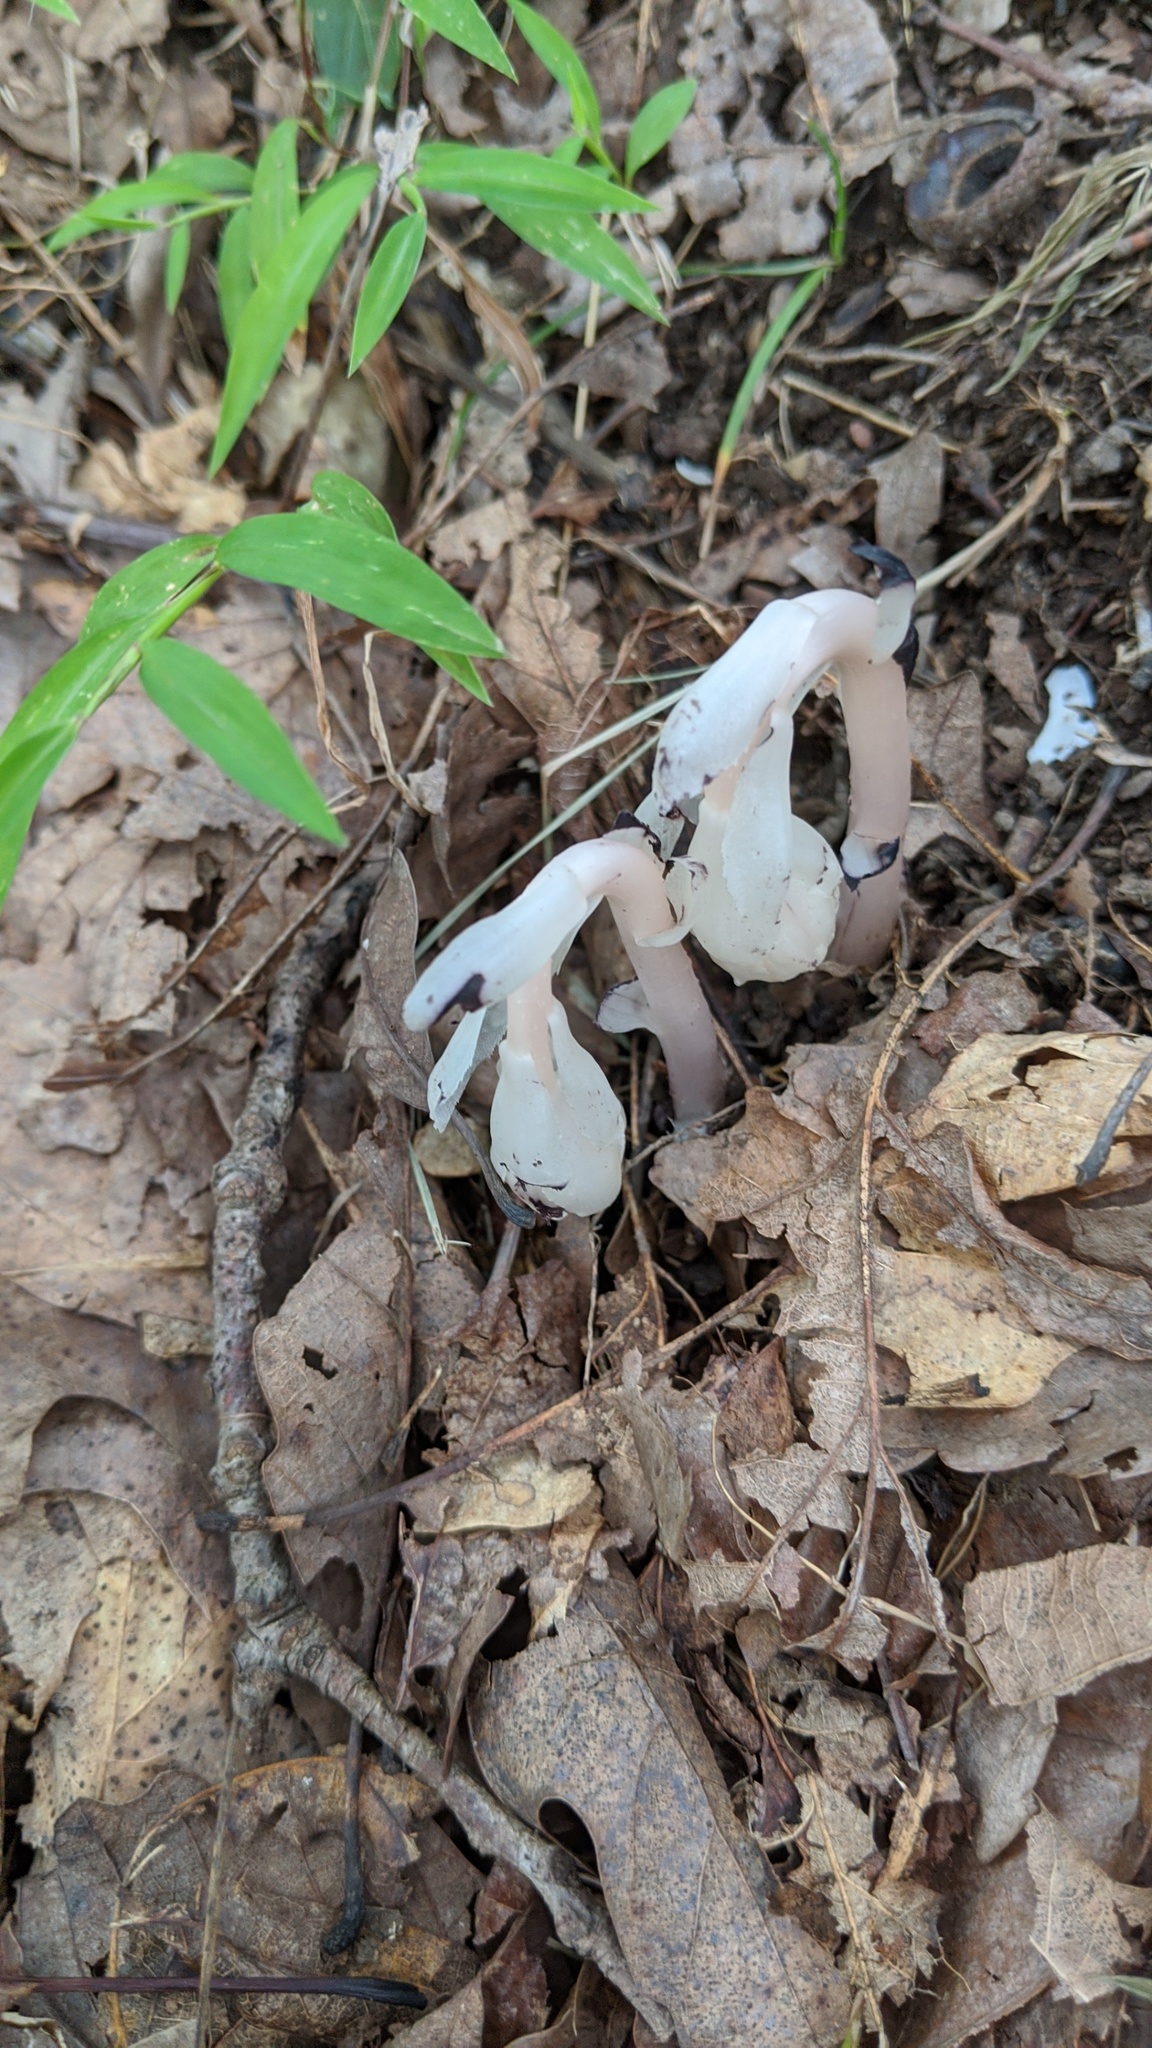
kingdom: Plantae
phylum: Tracheophyta
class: Magnoliopsida
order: Ericales
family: Ericaceae
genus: Monotropa
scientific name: Monotropa uniflora
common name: Convulsion root
